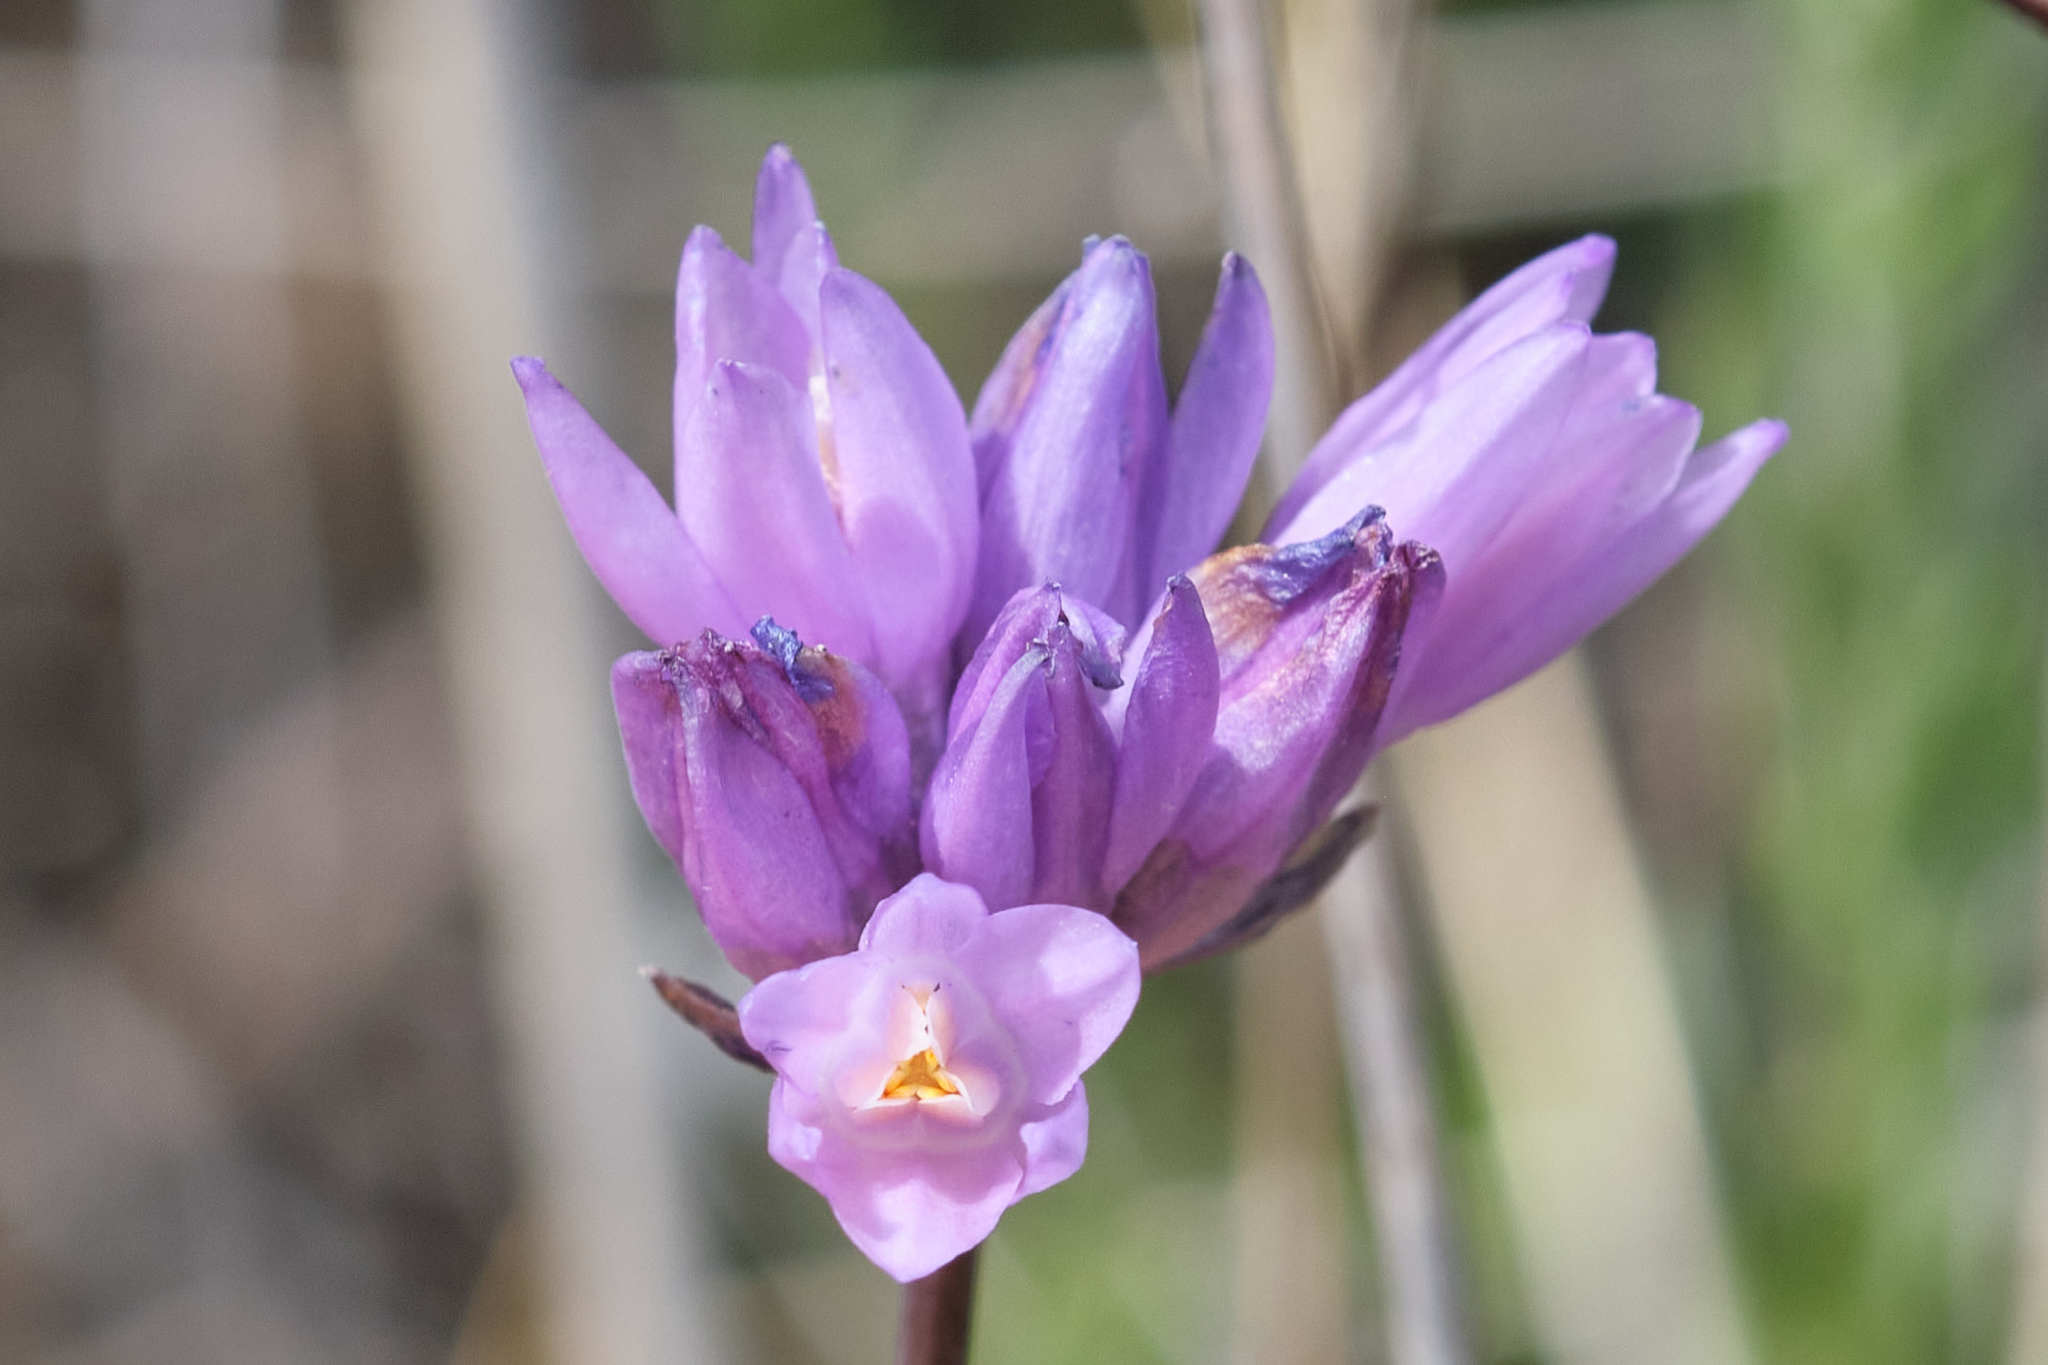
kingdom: Plantae
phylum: Tracheophyta
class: Liliopsida
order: Asparagales
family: Asparagaceae
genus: Dipterostemon
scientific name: Dipterostemon capitatus
